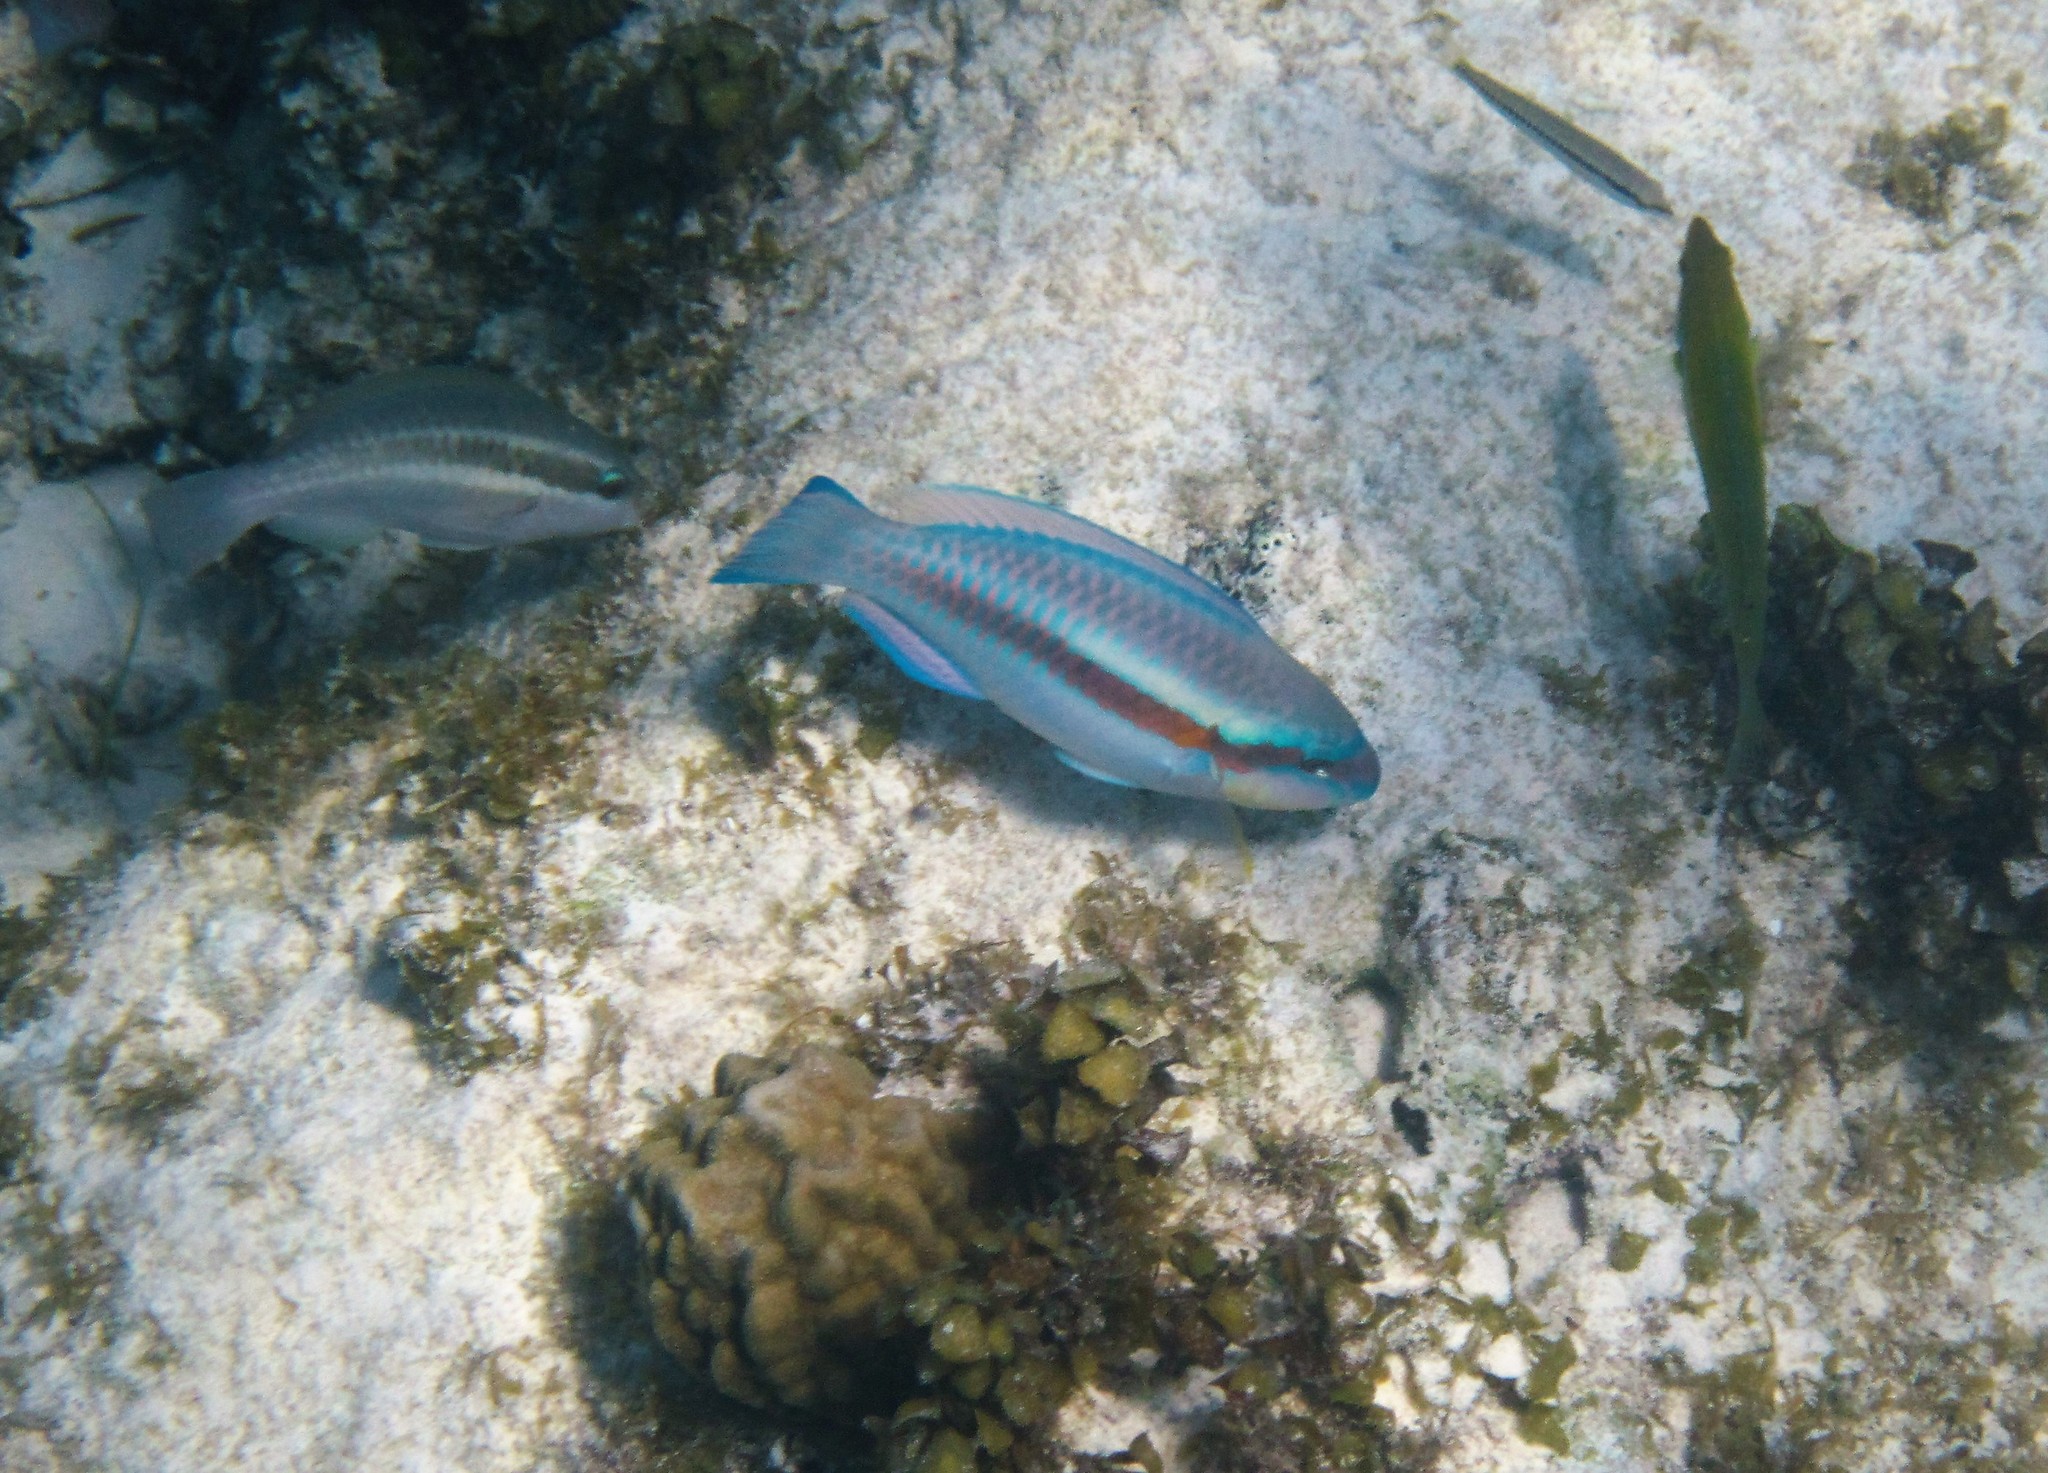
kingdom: Animalia
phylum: Chordata
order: Perciformes
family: Scaridae
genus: Scarus
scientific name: Scarus iseri
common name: Striped parrotfish
